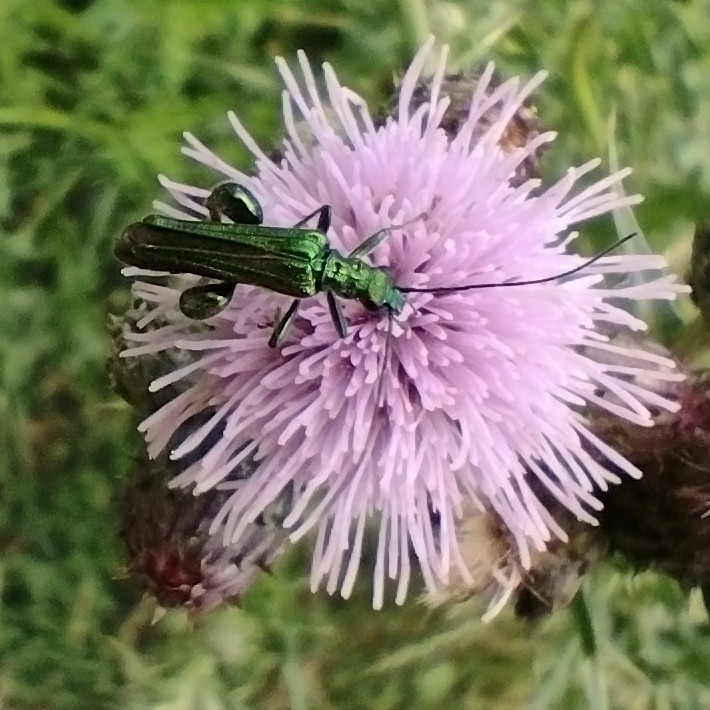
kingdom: Animalia
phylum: Arthropoda
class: Insecta
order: Coleoptera
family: Oedemeridae
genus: Oedemera
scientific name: Oedemera nobilis
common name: Swollen-thighed beetle
